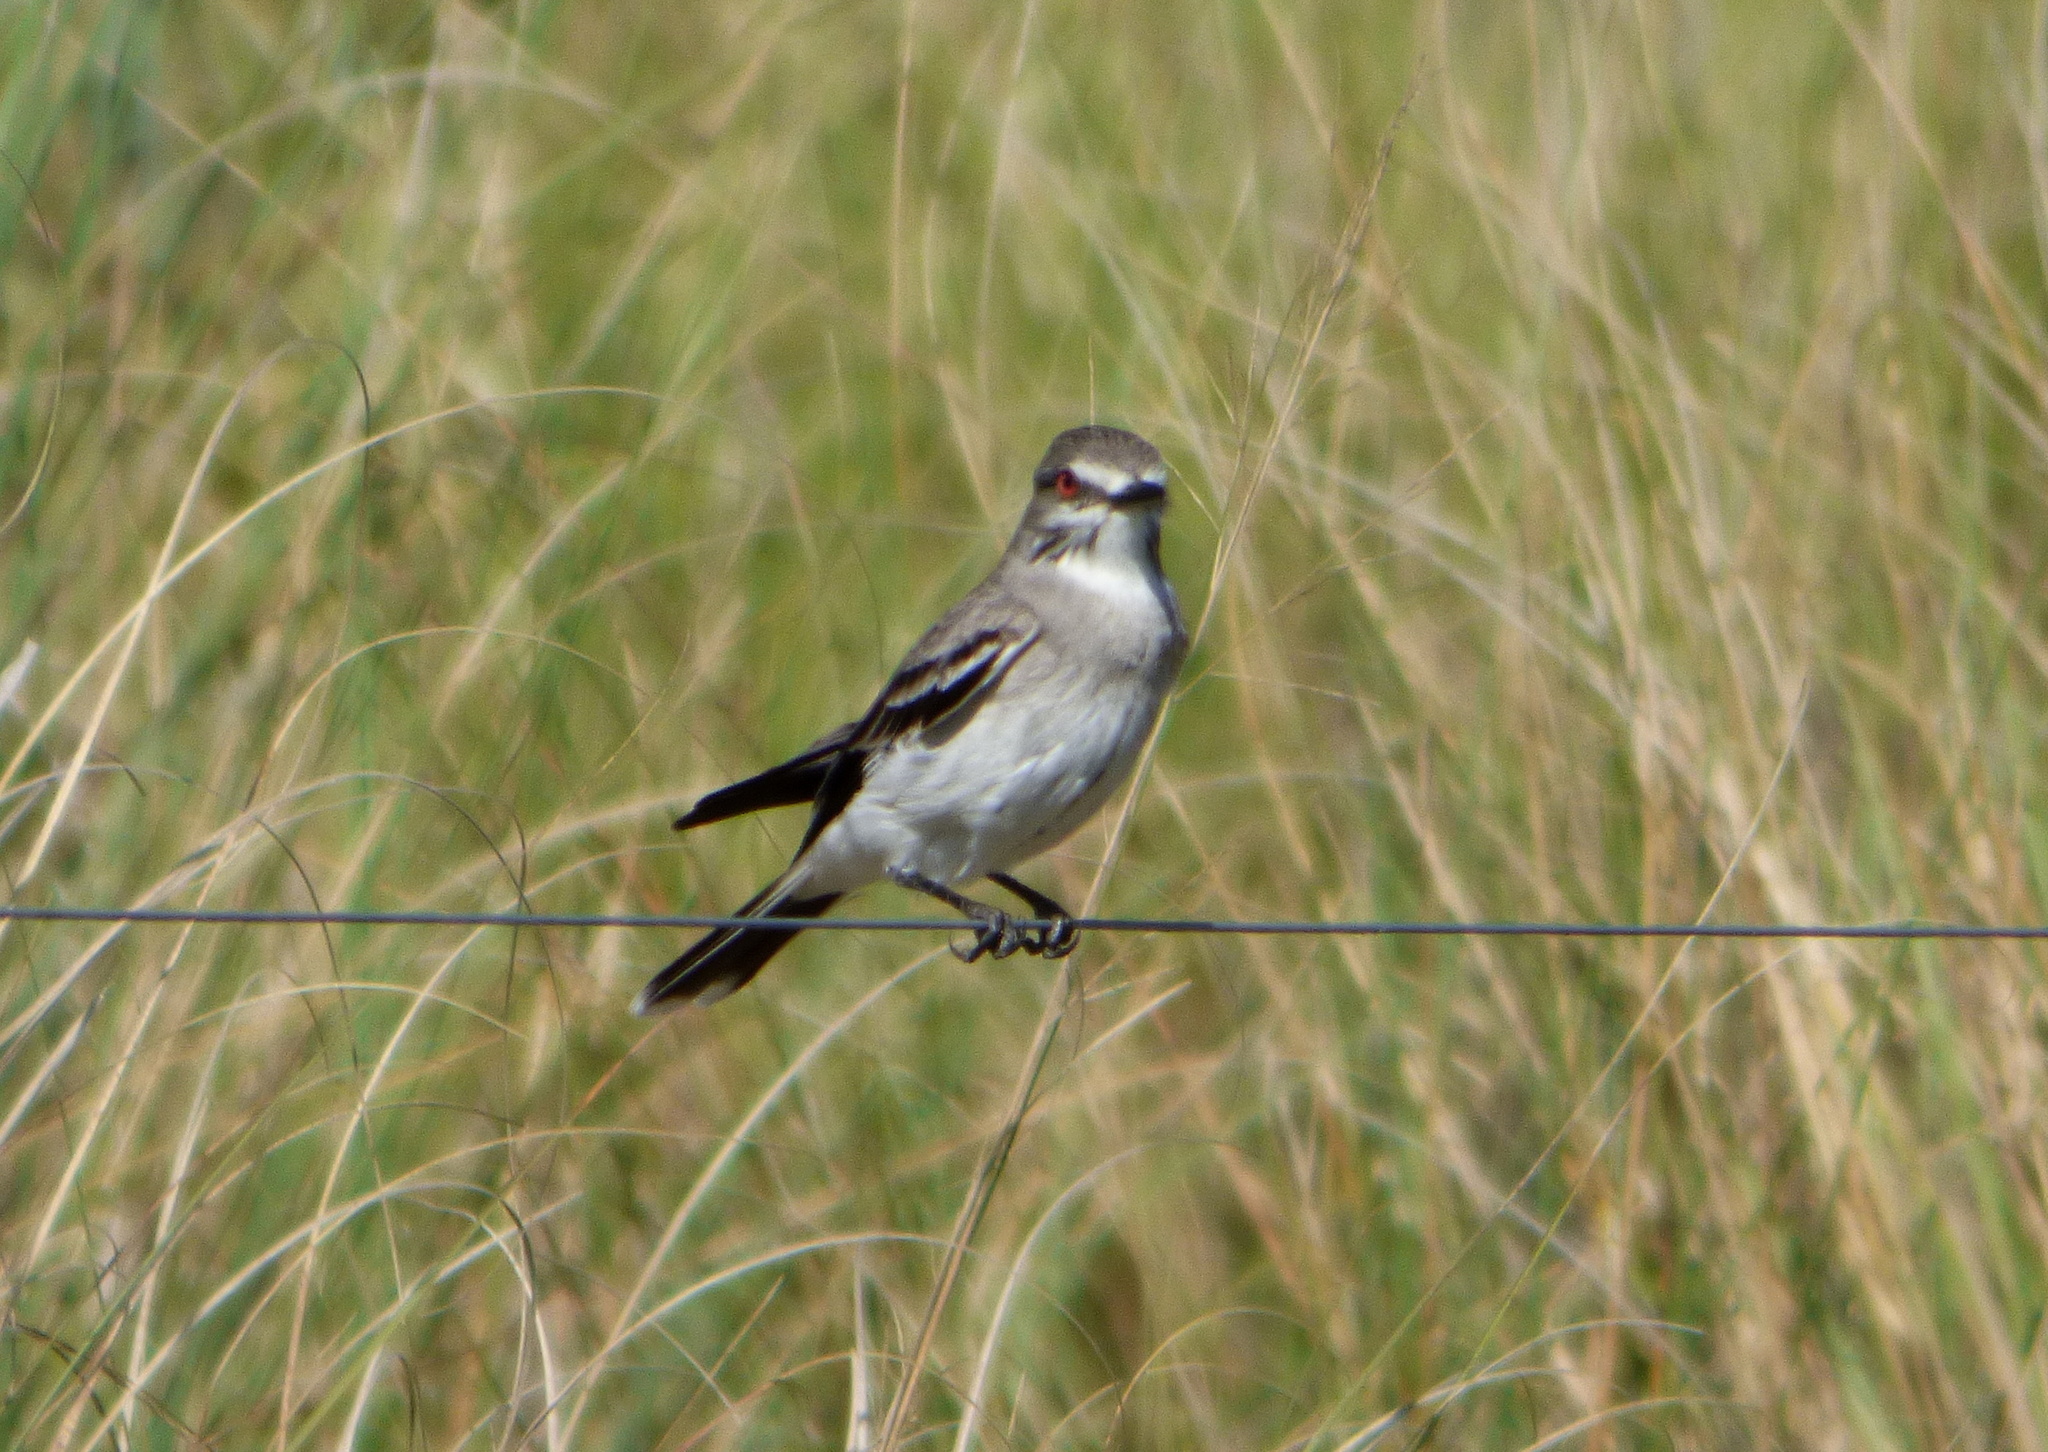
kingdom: Animalia
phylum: Chordata
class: Aves
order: Passeriformes
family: Tyrannidae
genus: Xolmis
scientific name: Xolmis cinereus
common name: Grey monjita
